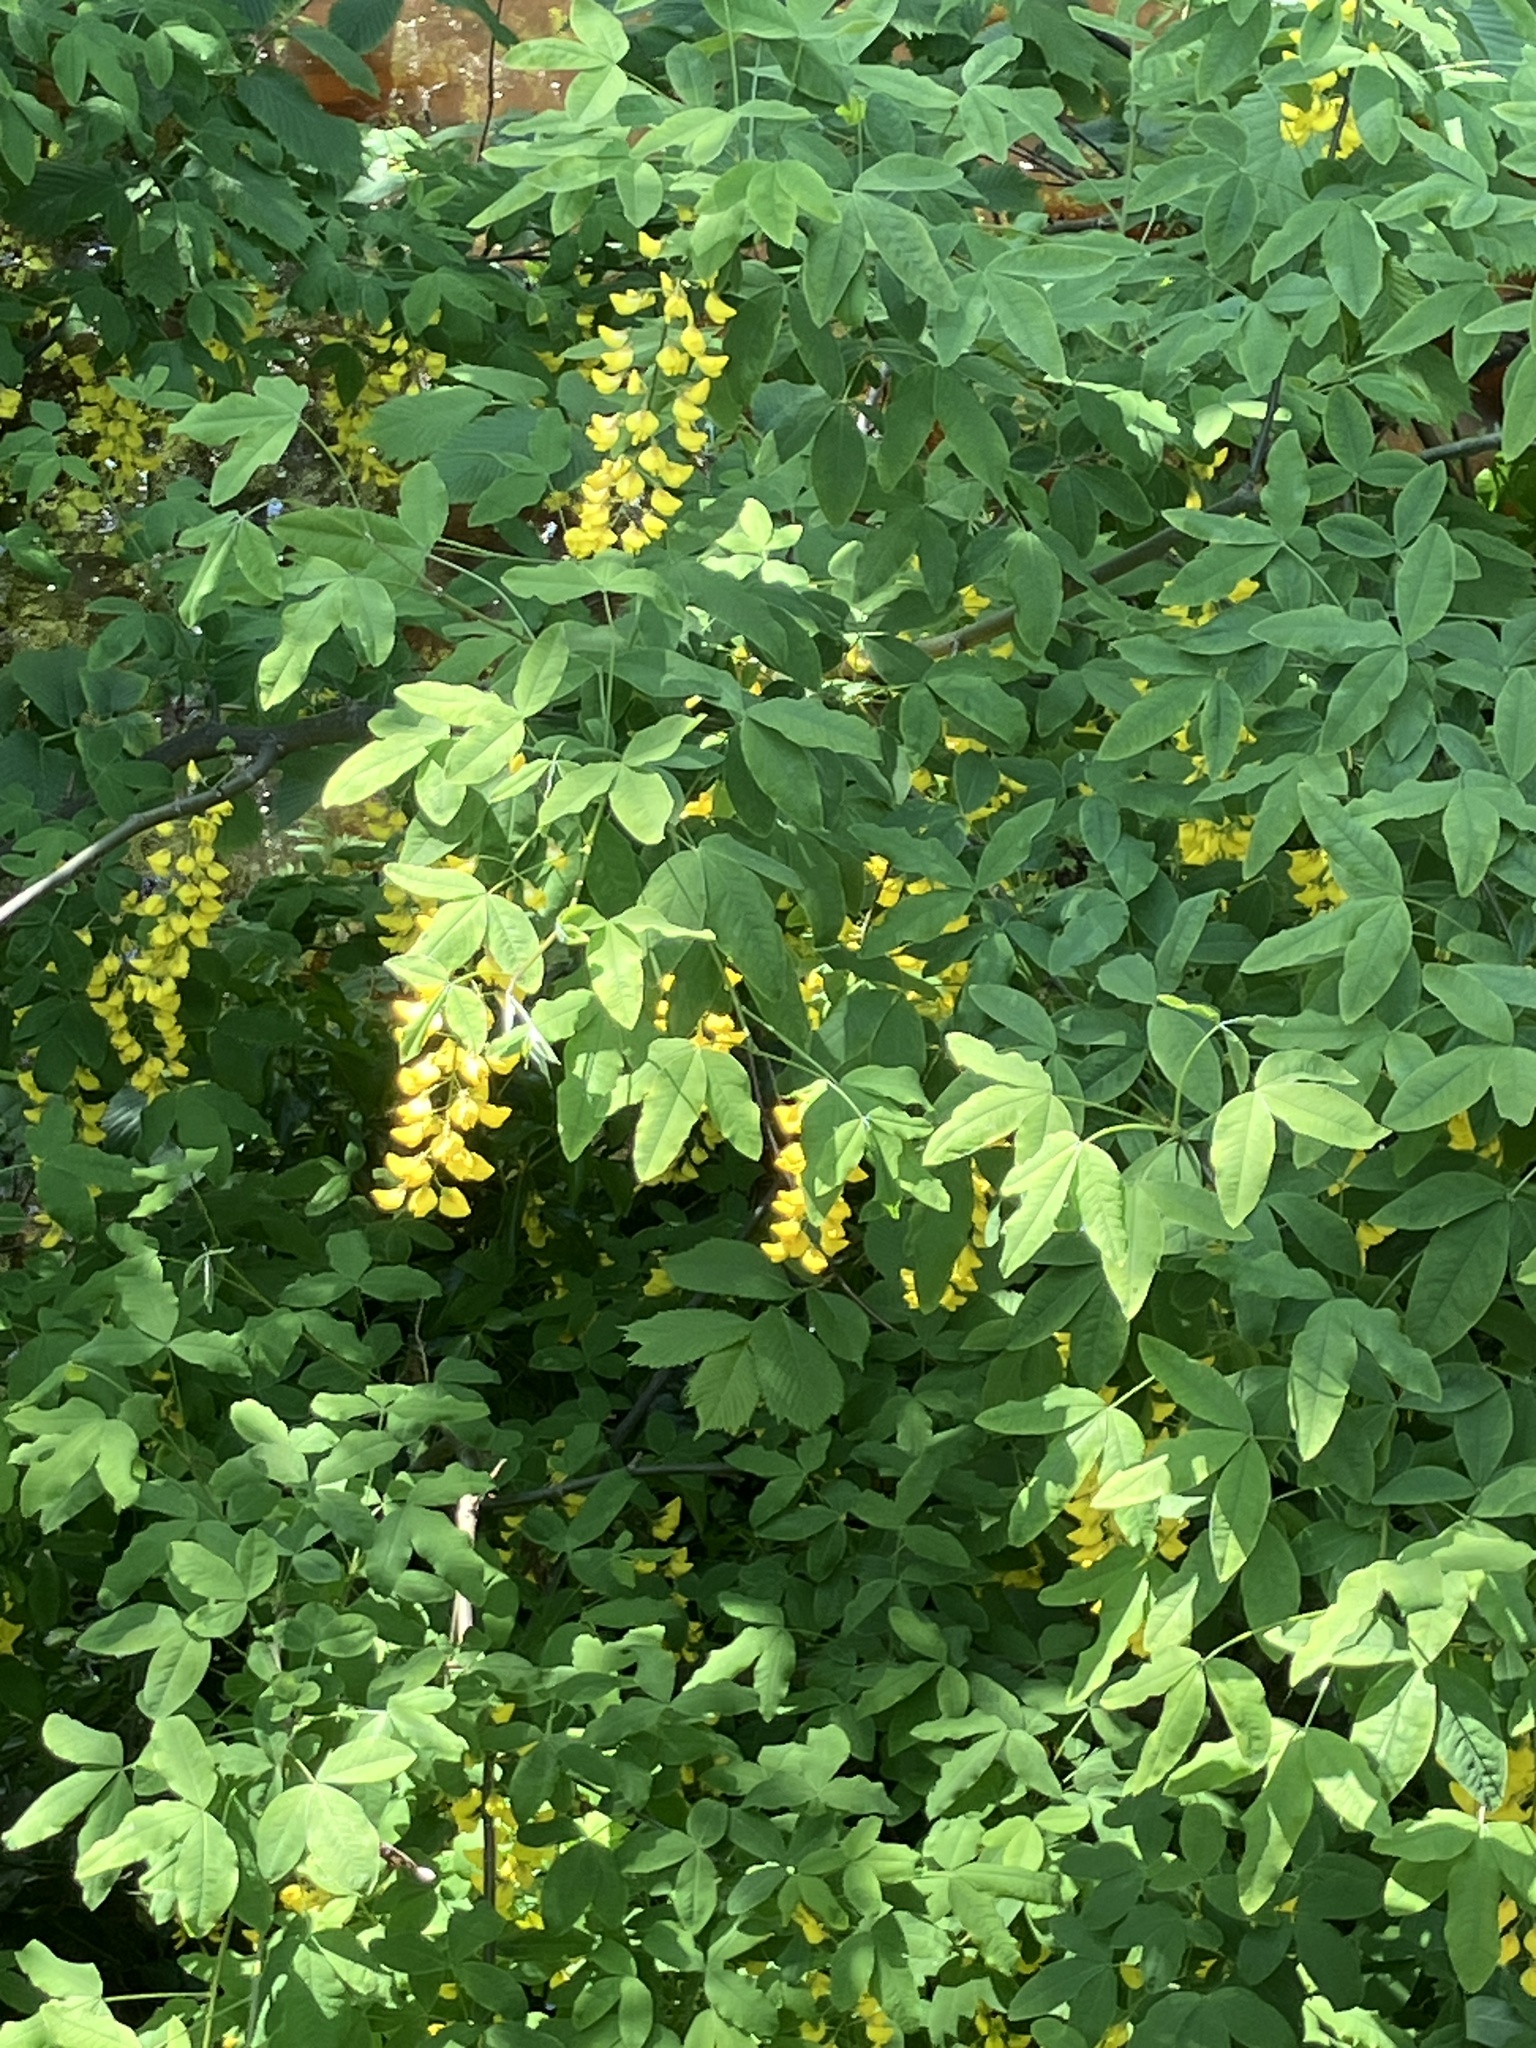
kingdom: Plantae
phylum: Tracheophyta
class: Magnoliopsida
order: Fabales
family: Fabaceae
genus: Laburnum
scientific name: Laburnum anagyroides
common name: Laburnum
